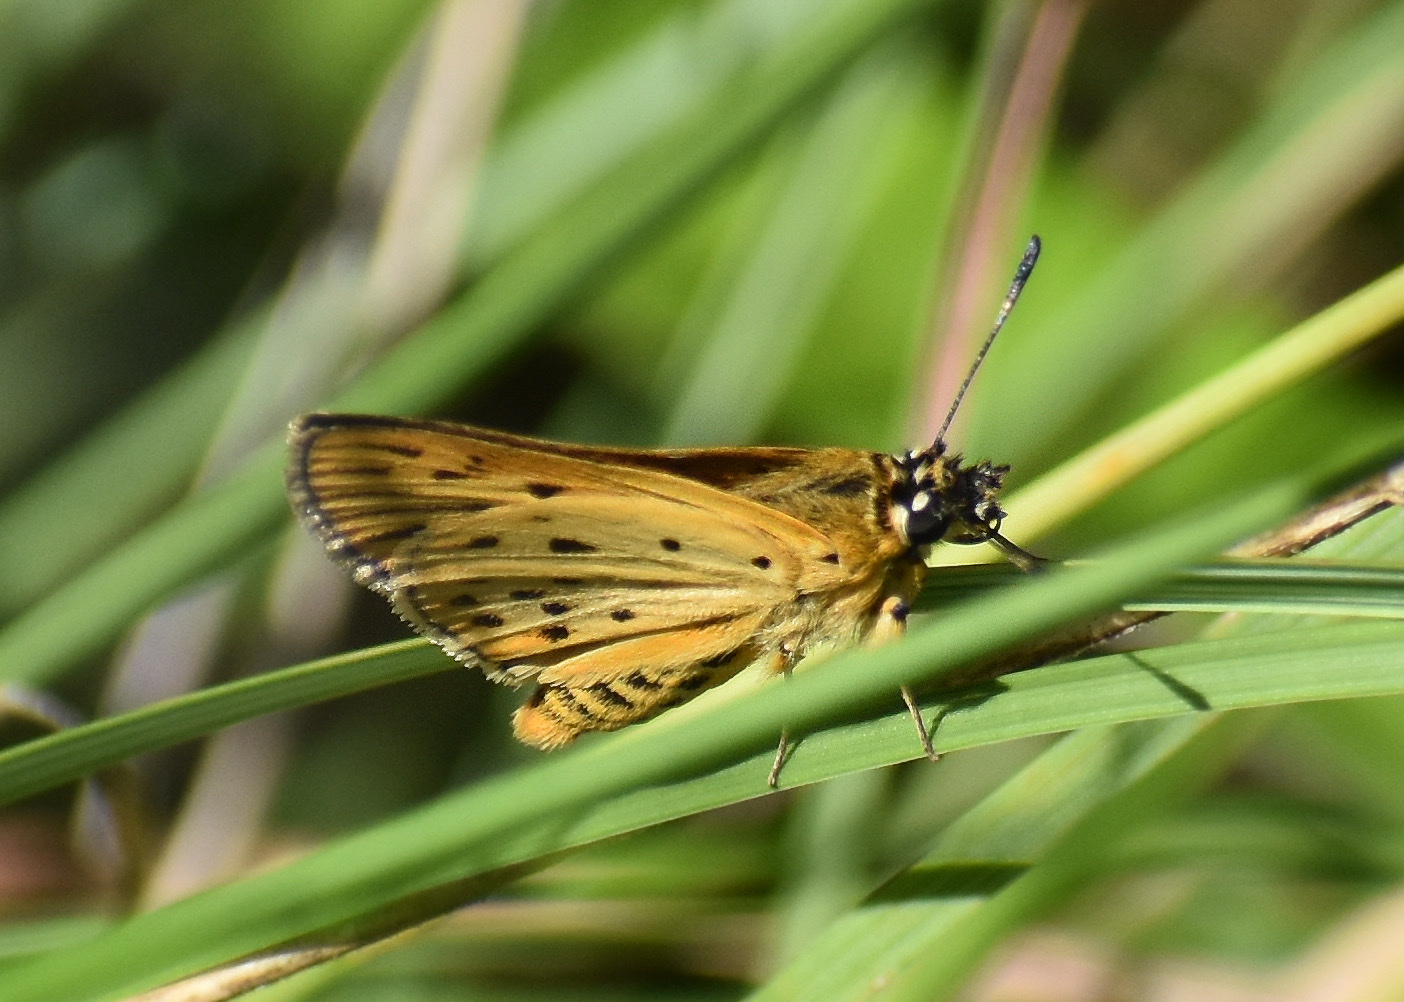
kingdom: Animalia
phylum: Arthropoda
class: Insecta
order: Lepidoptera
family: Hesperiidae
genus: Kedestes
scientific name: Kedestes lepenula
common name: Chequered ranger
